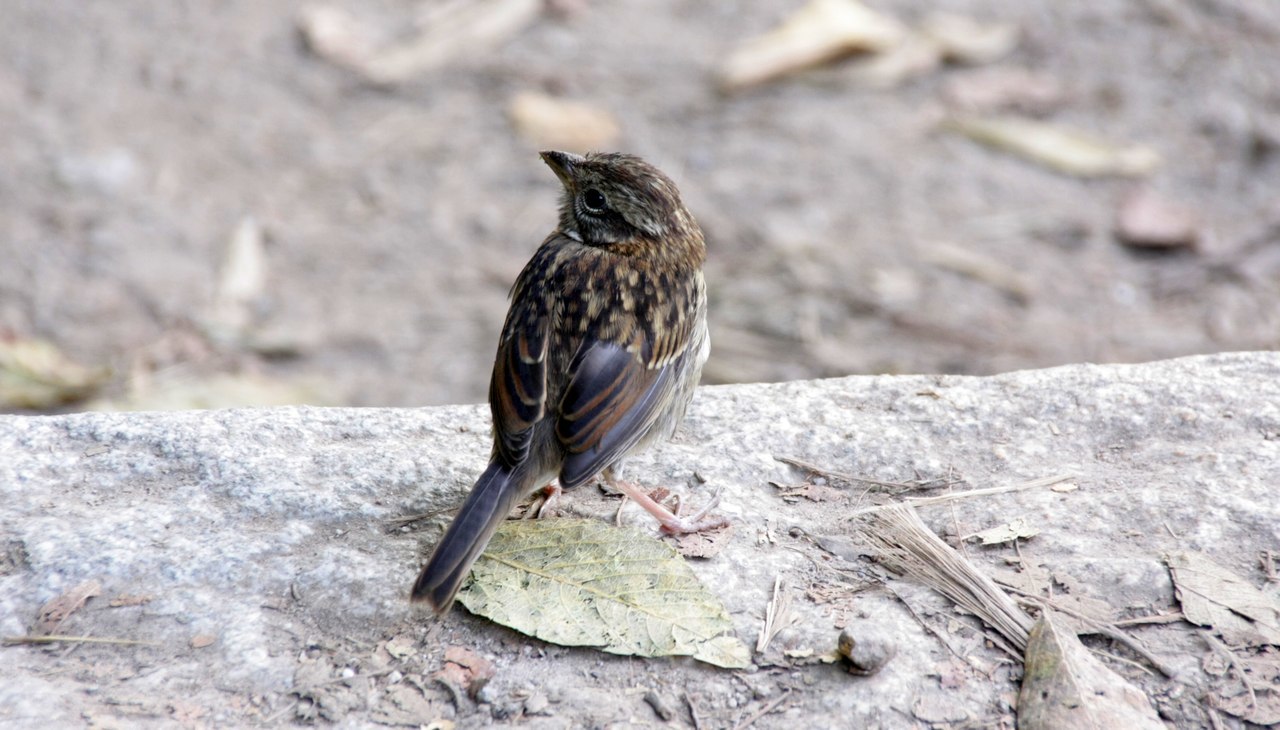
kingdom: Animalia
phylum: Chordata
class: Aves
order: Passeriformes
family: Passerellidae
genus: Zonotrichia
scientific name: Zonotrichia capensis
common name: Rufous-collared sparrow
